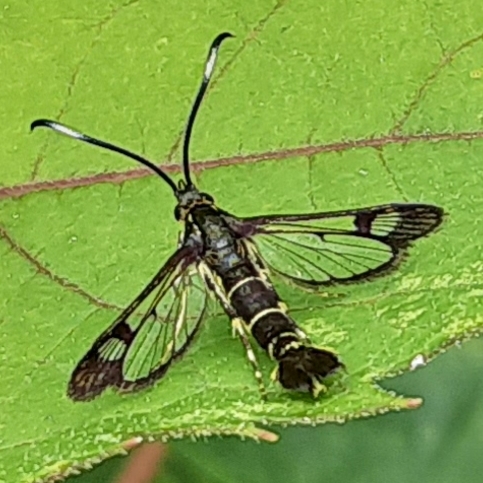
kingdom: Animalia
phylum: Arthropoda
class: Insecta
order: Lepidoptera
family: Sesiidae
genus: Carmenta
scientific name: Carmenta ithacae
